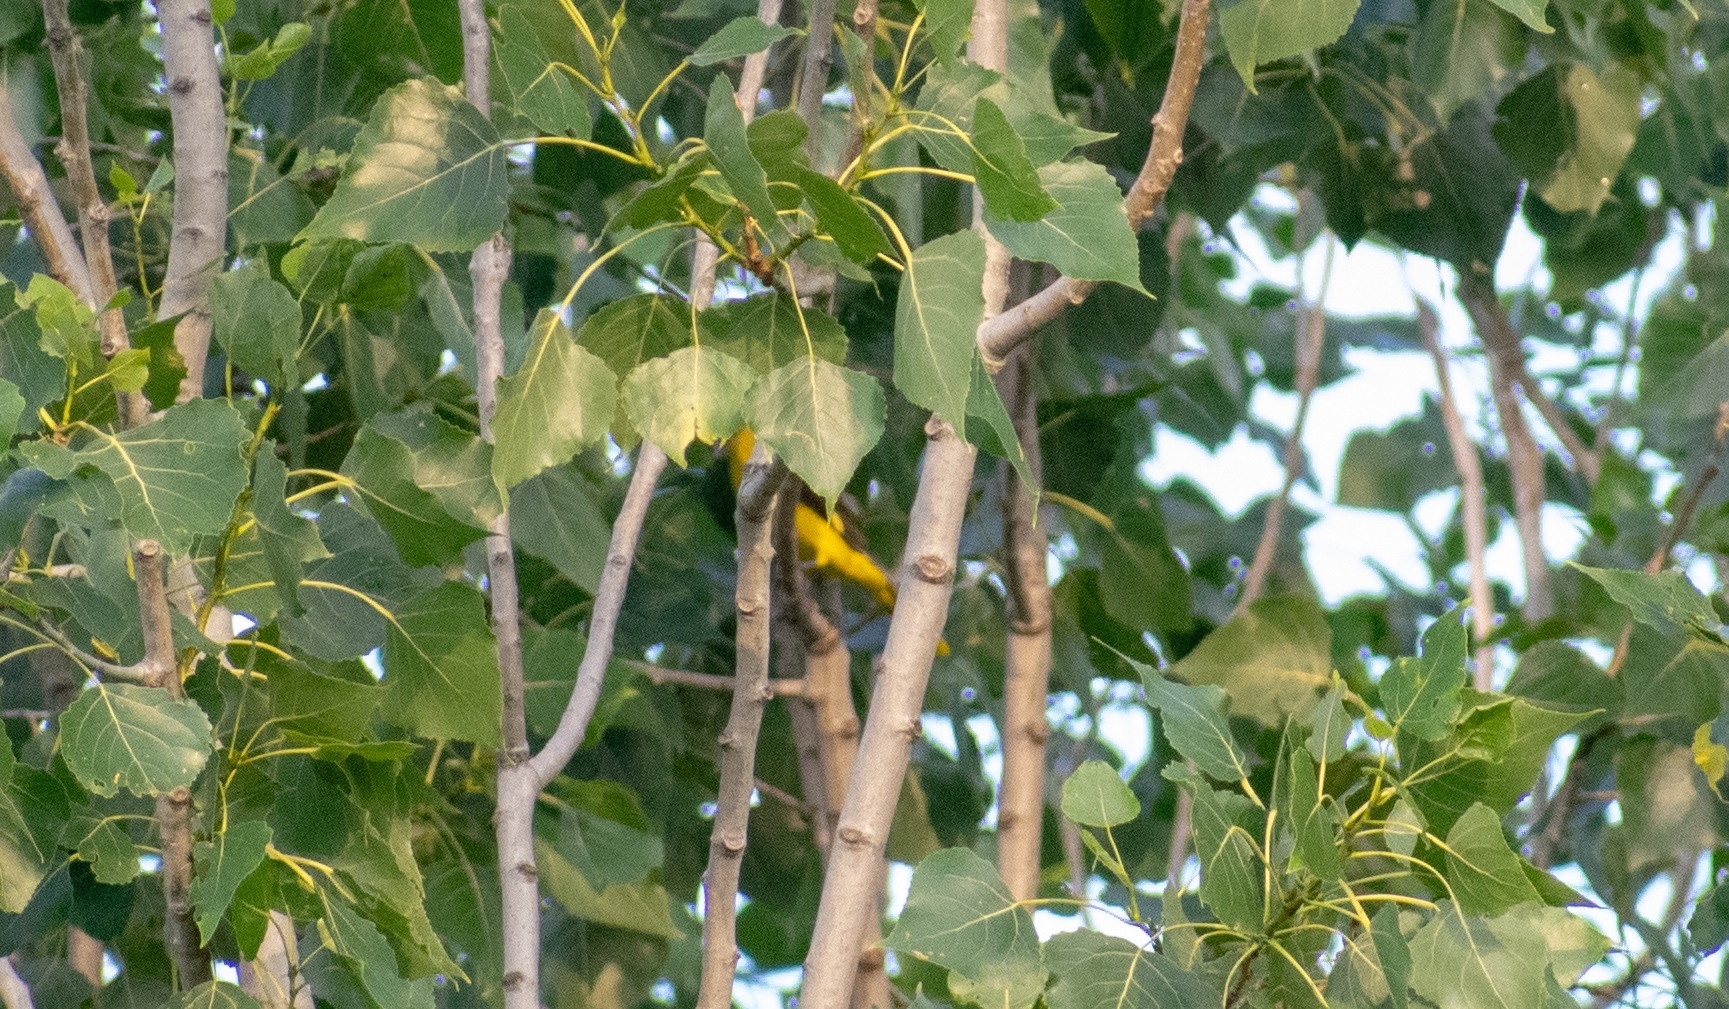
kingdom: Animalia
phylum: Chordata
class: Aves
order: Passeriformes
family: Oriolidae
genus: Oriolus
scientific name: Oriolus oriolus
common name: Eurasian golden oriole
